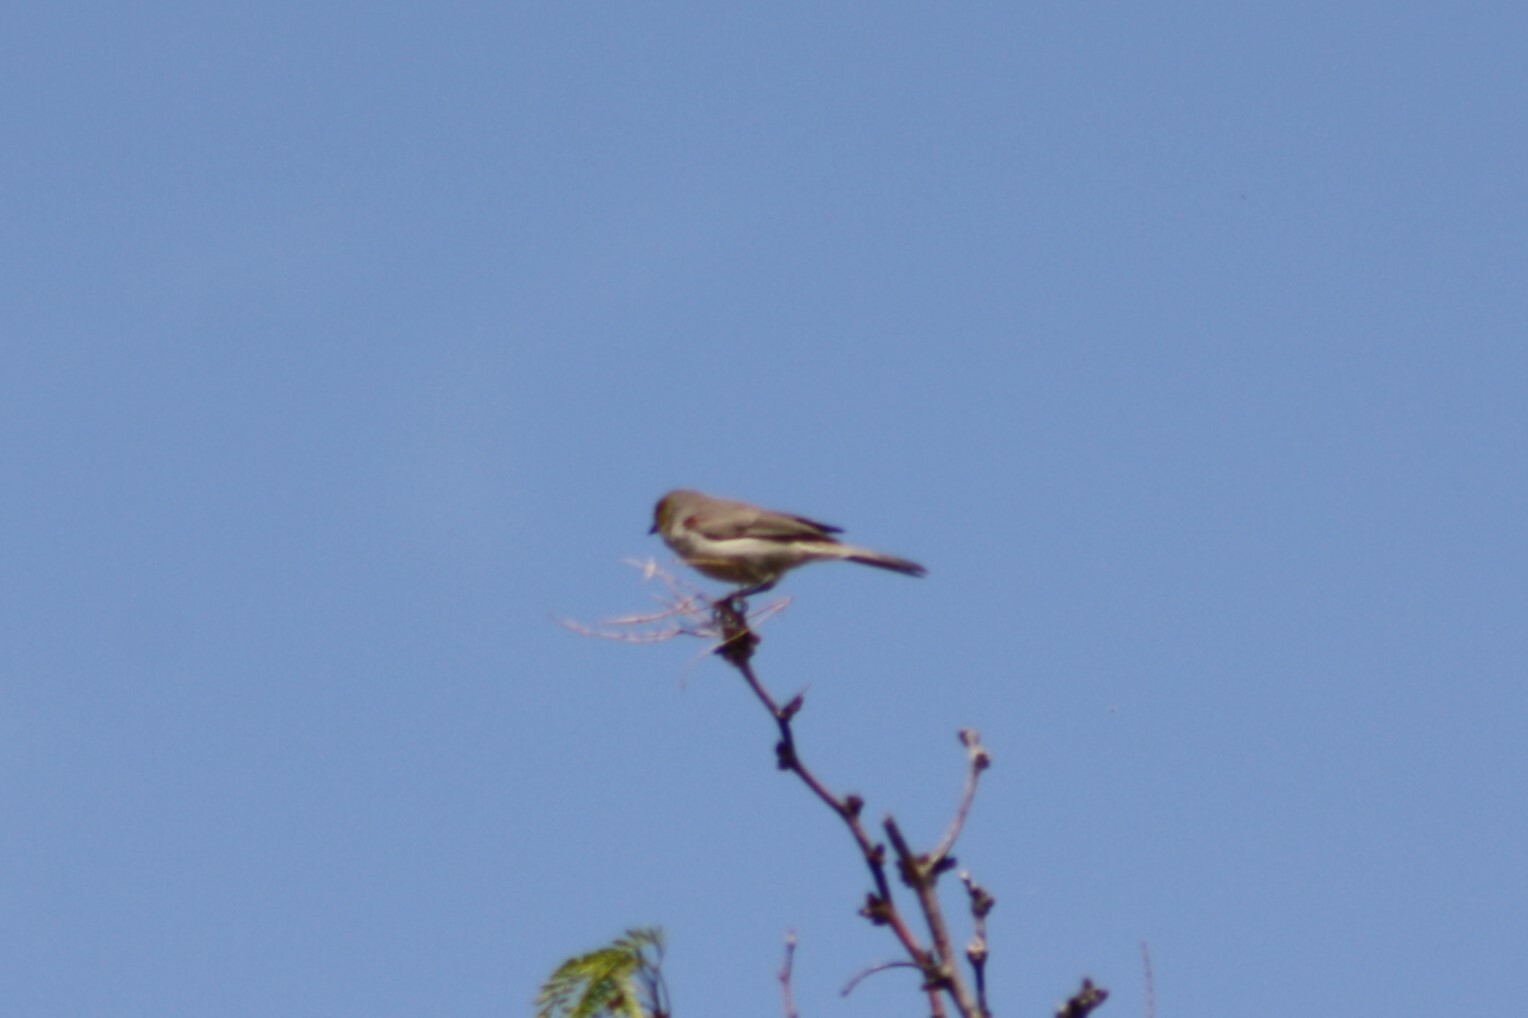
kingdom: Animalia
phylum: Chordata
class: Aves
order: Passeriformes
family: Remizidae
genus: Auriparus
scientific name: Auriparus flaviceps
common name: Verdin
